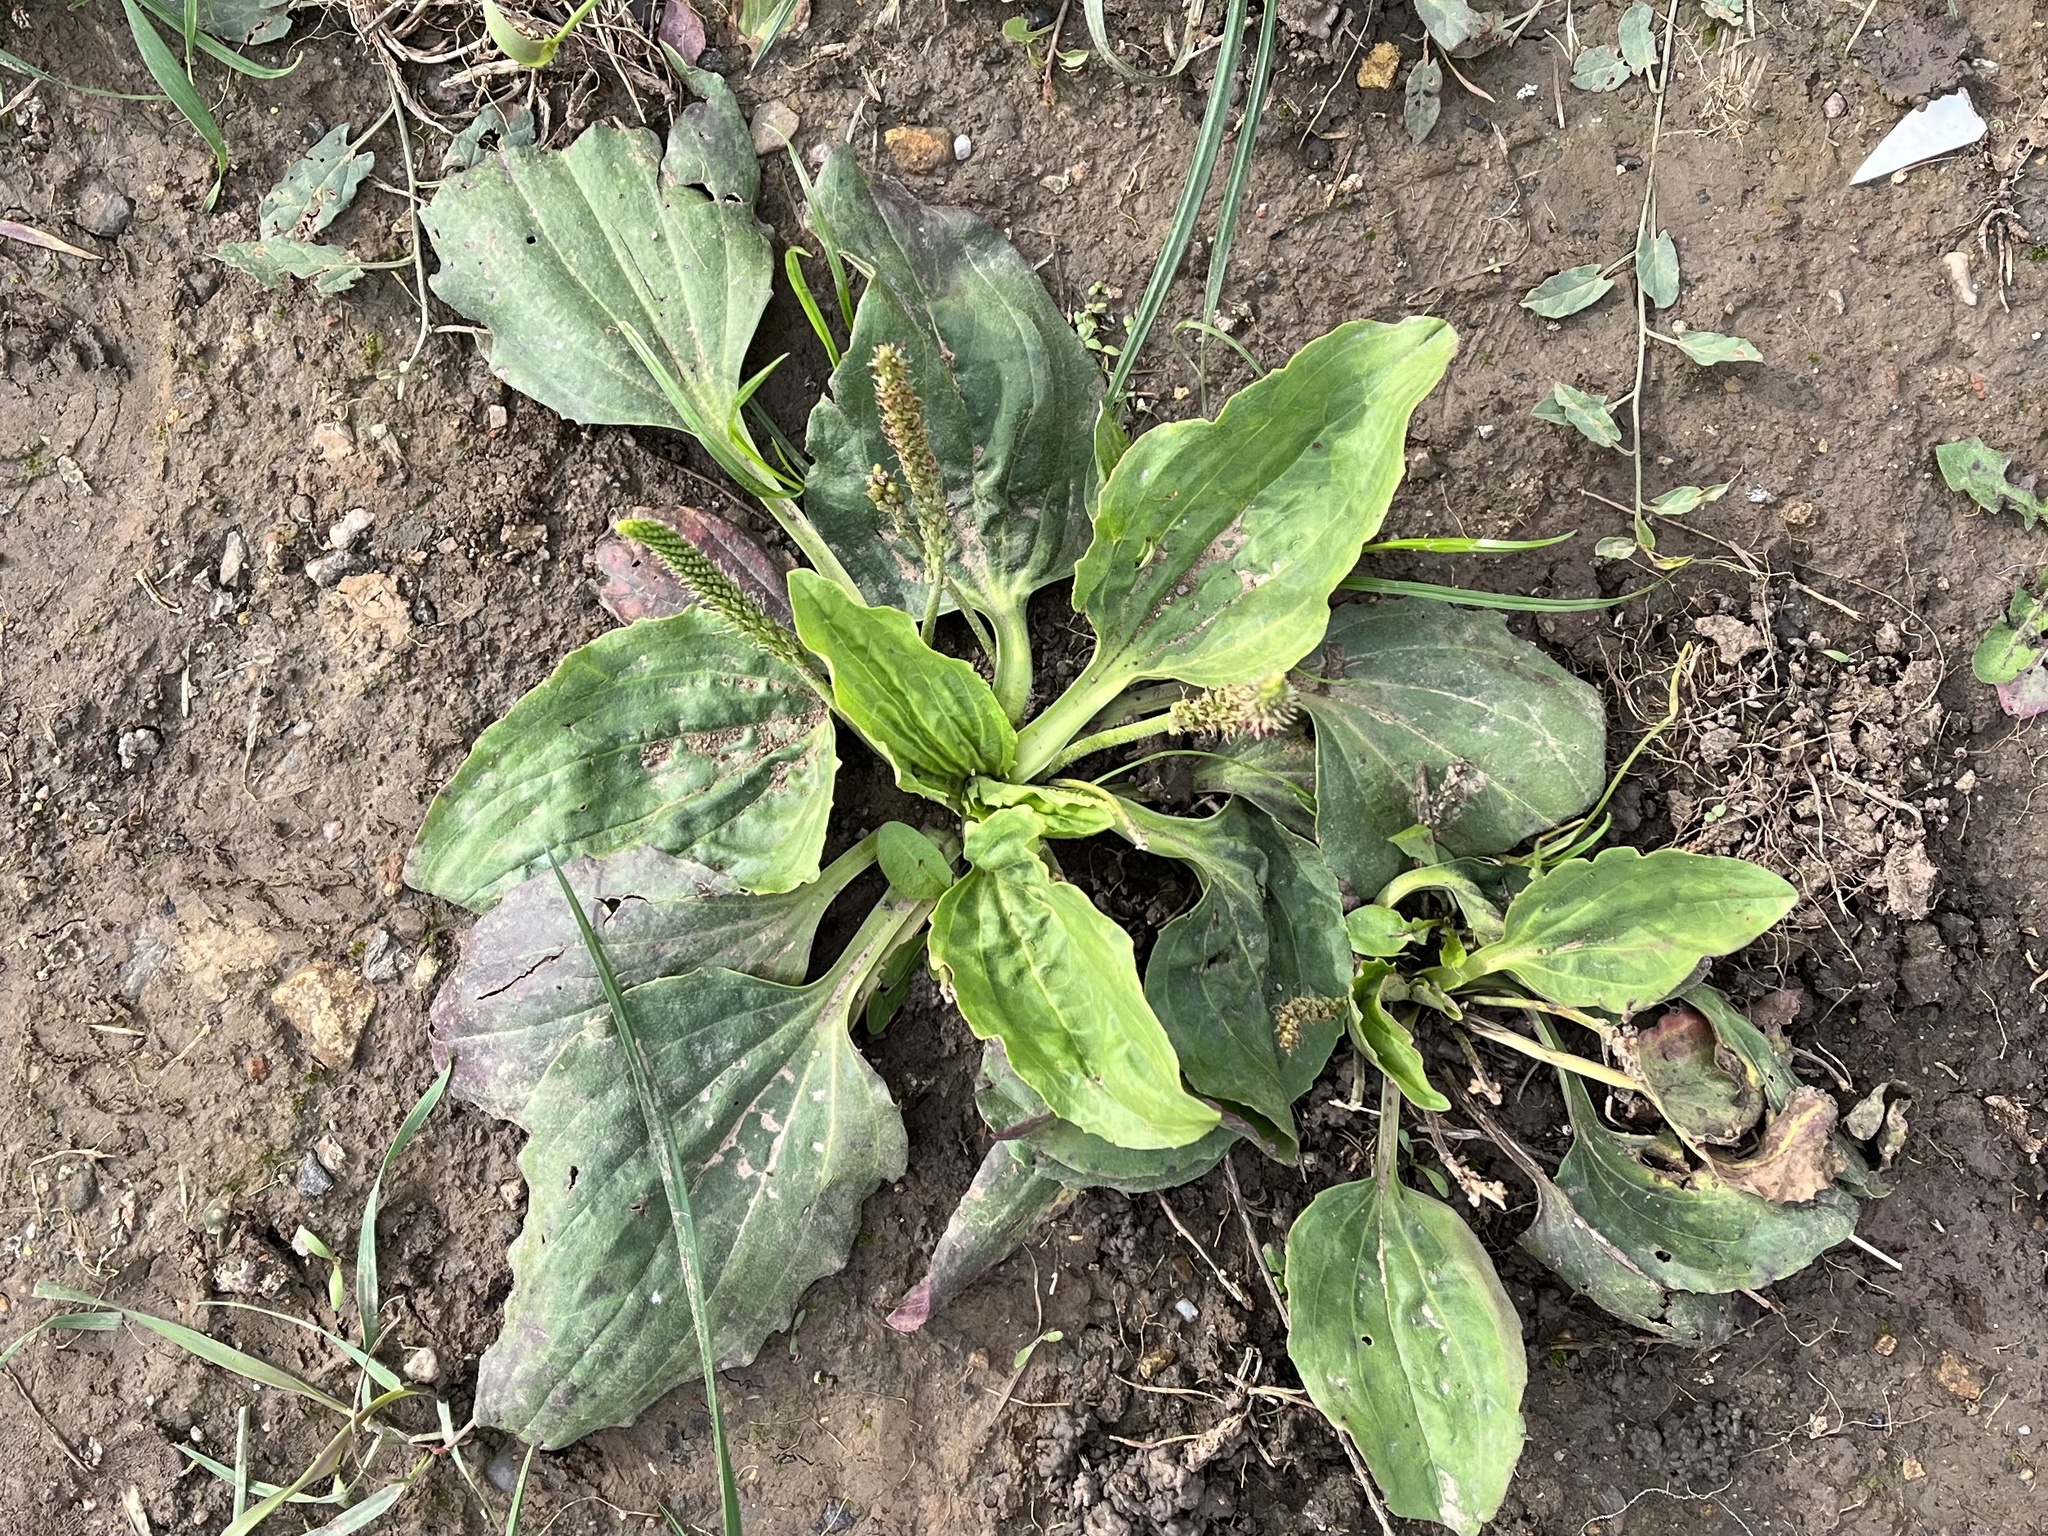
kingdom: Plantae
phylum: Tracheophyta
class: Magnoliopsida
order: Lamiales
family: Plantaginaceae
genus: Plantago
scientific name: Plantago major
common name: Common plantain
